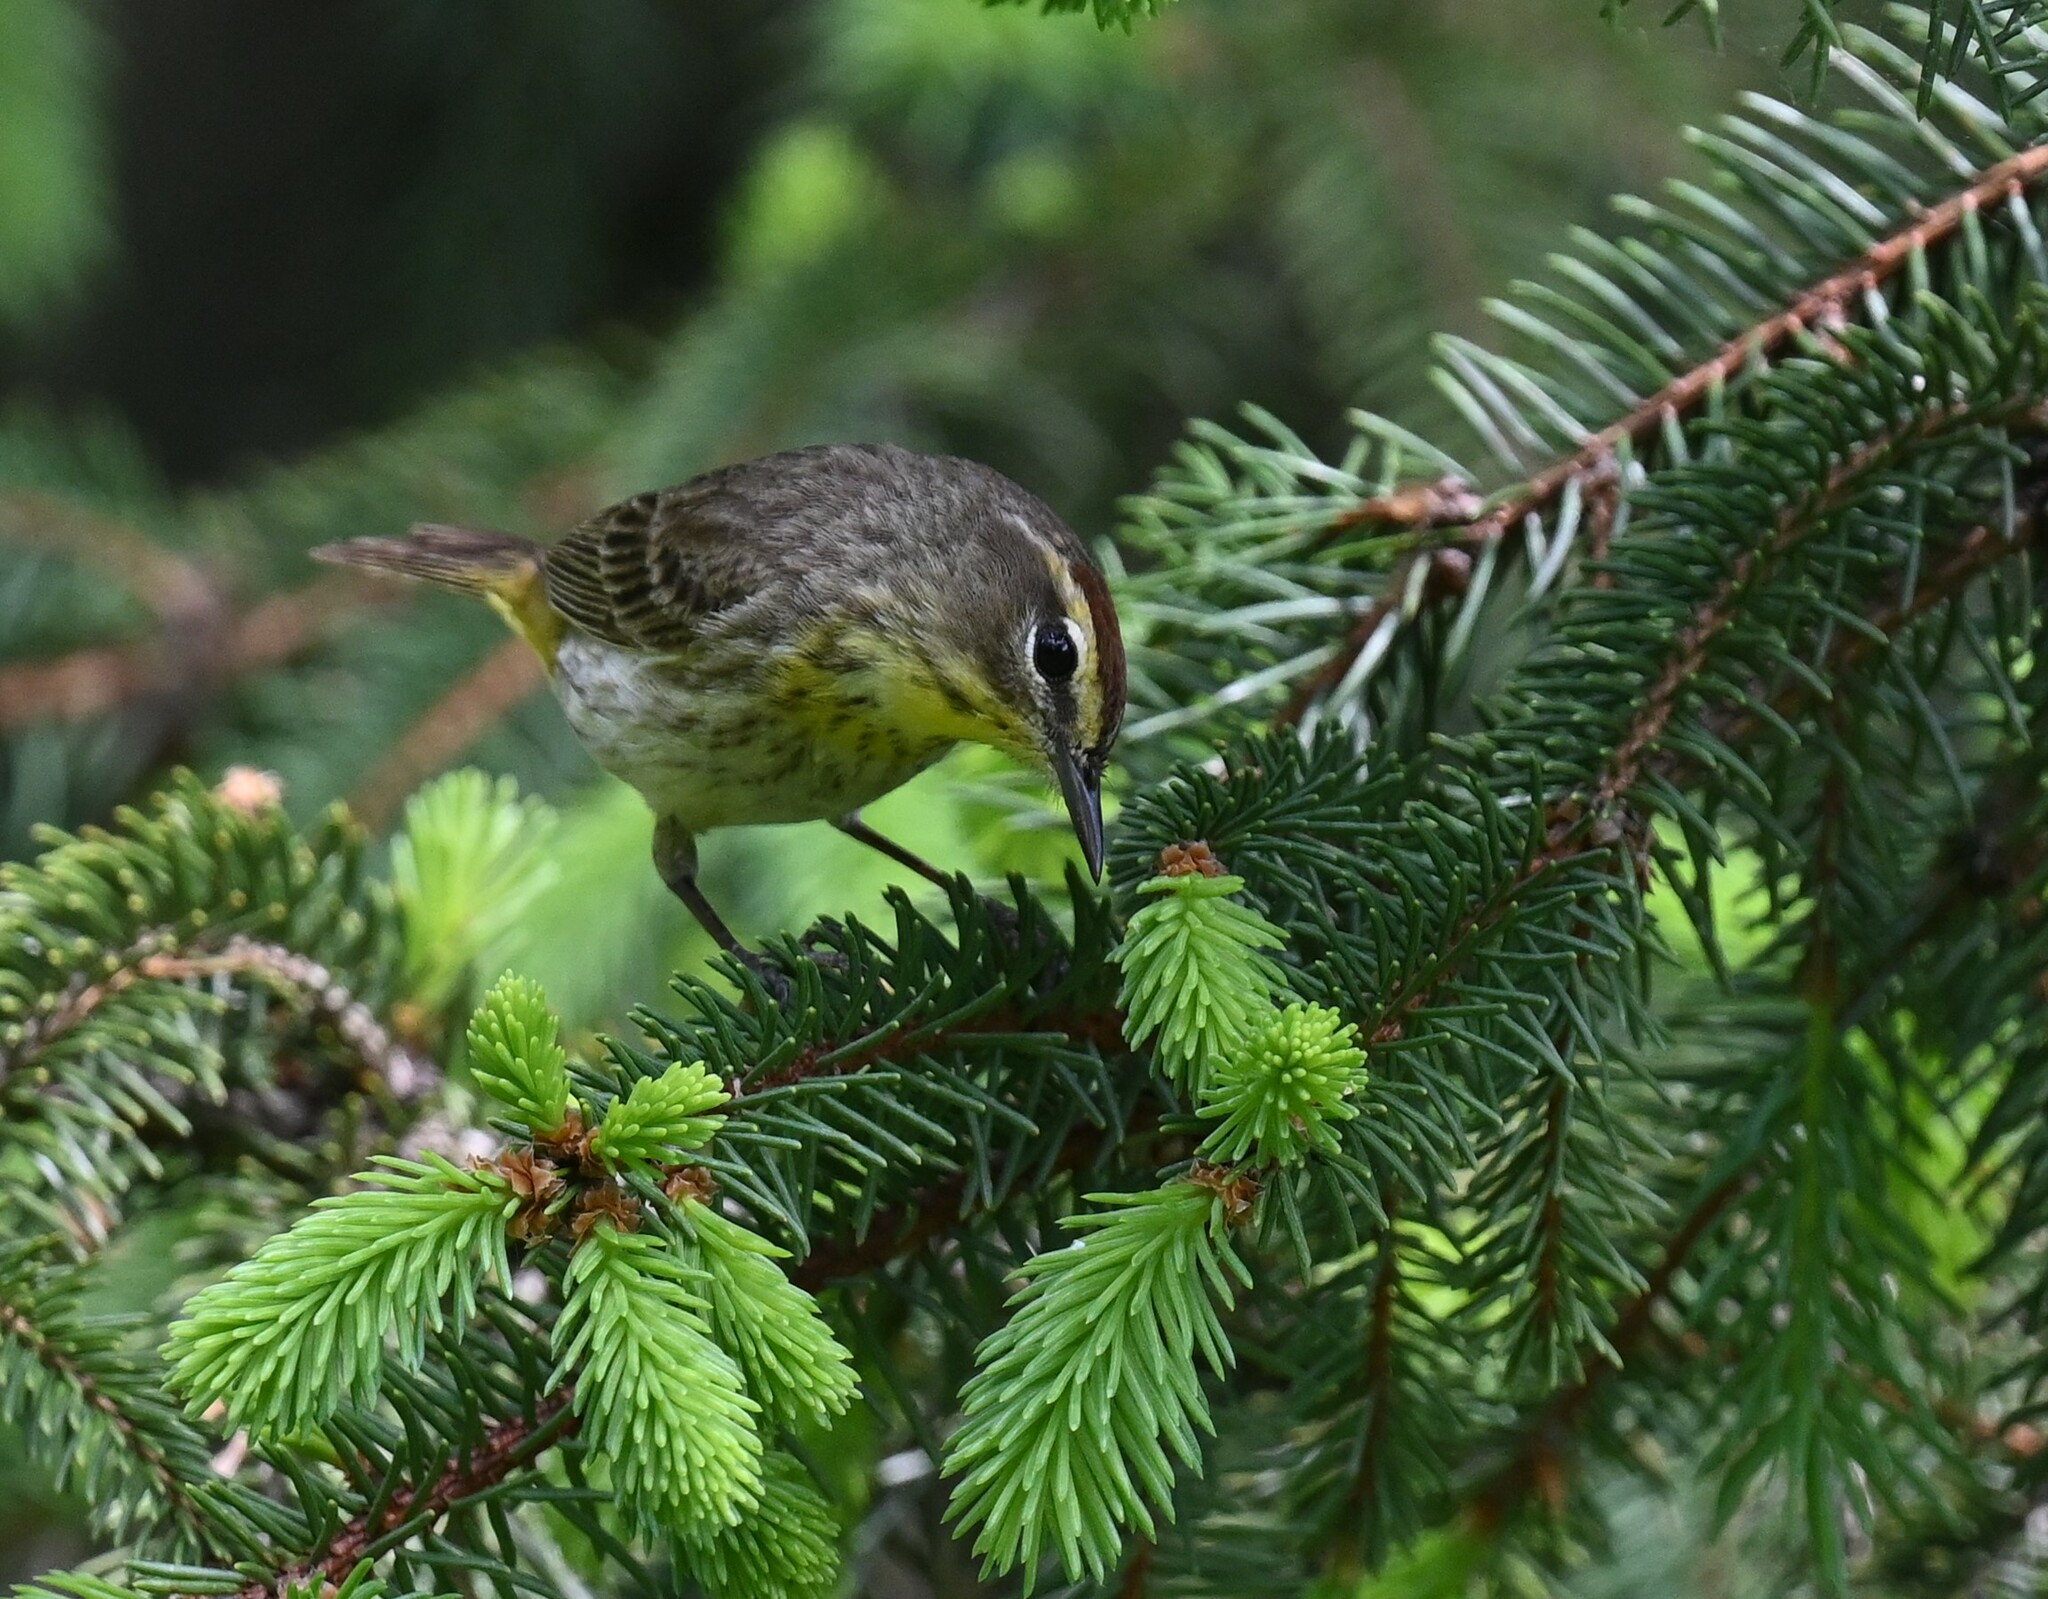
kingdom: Animalia
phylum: Chordata
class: Aves
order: Passeriformes
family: Parulidae
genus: Setophaga
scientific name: Setophaga palmarum
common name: Palm warbler
